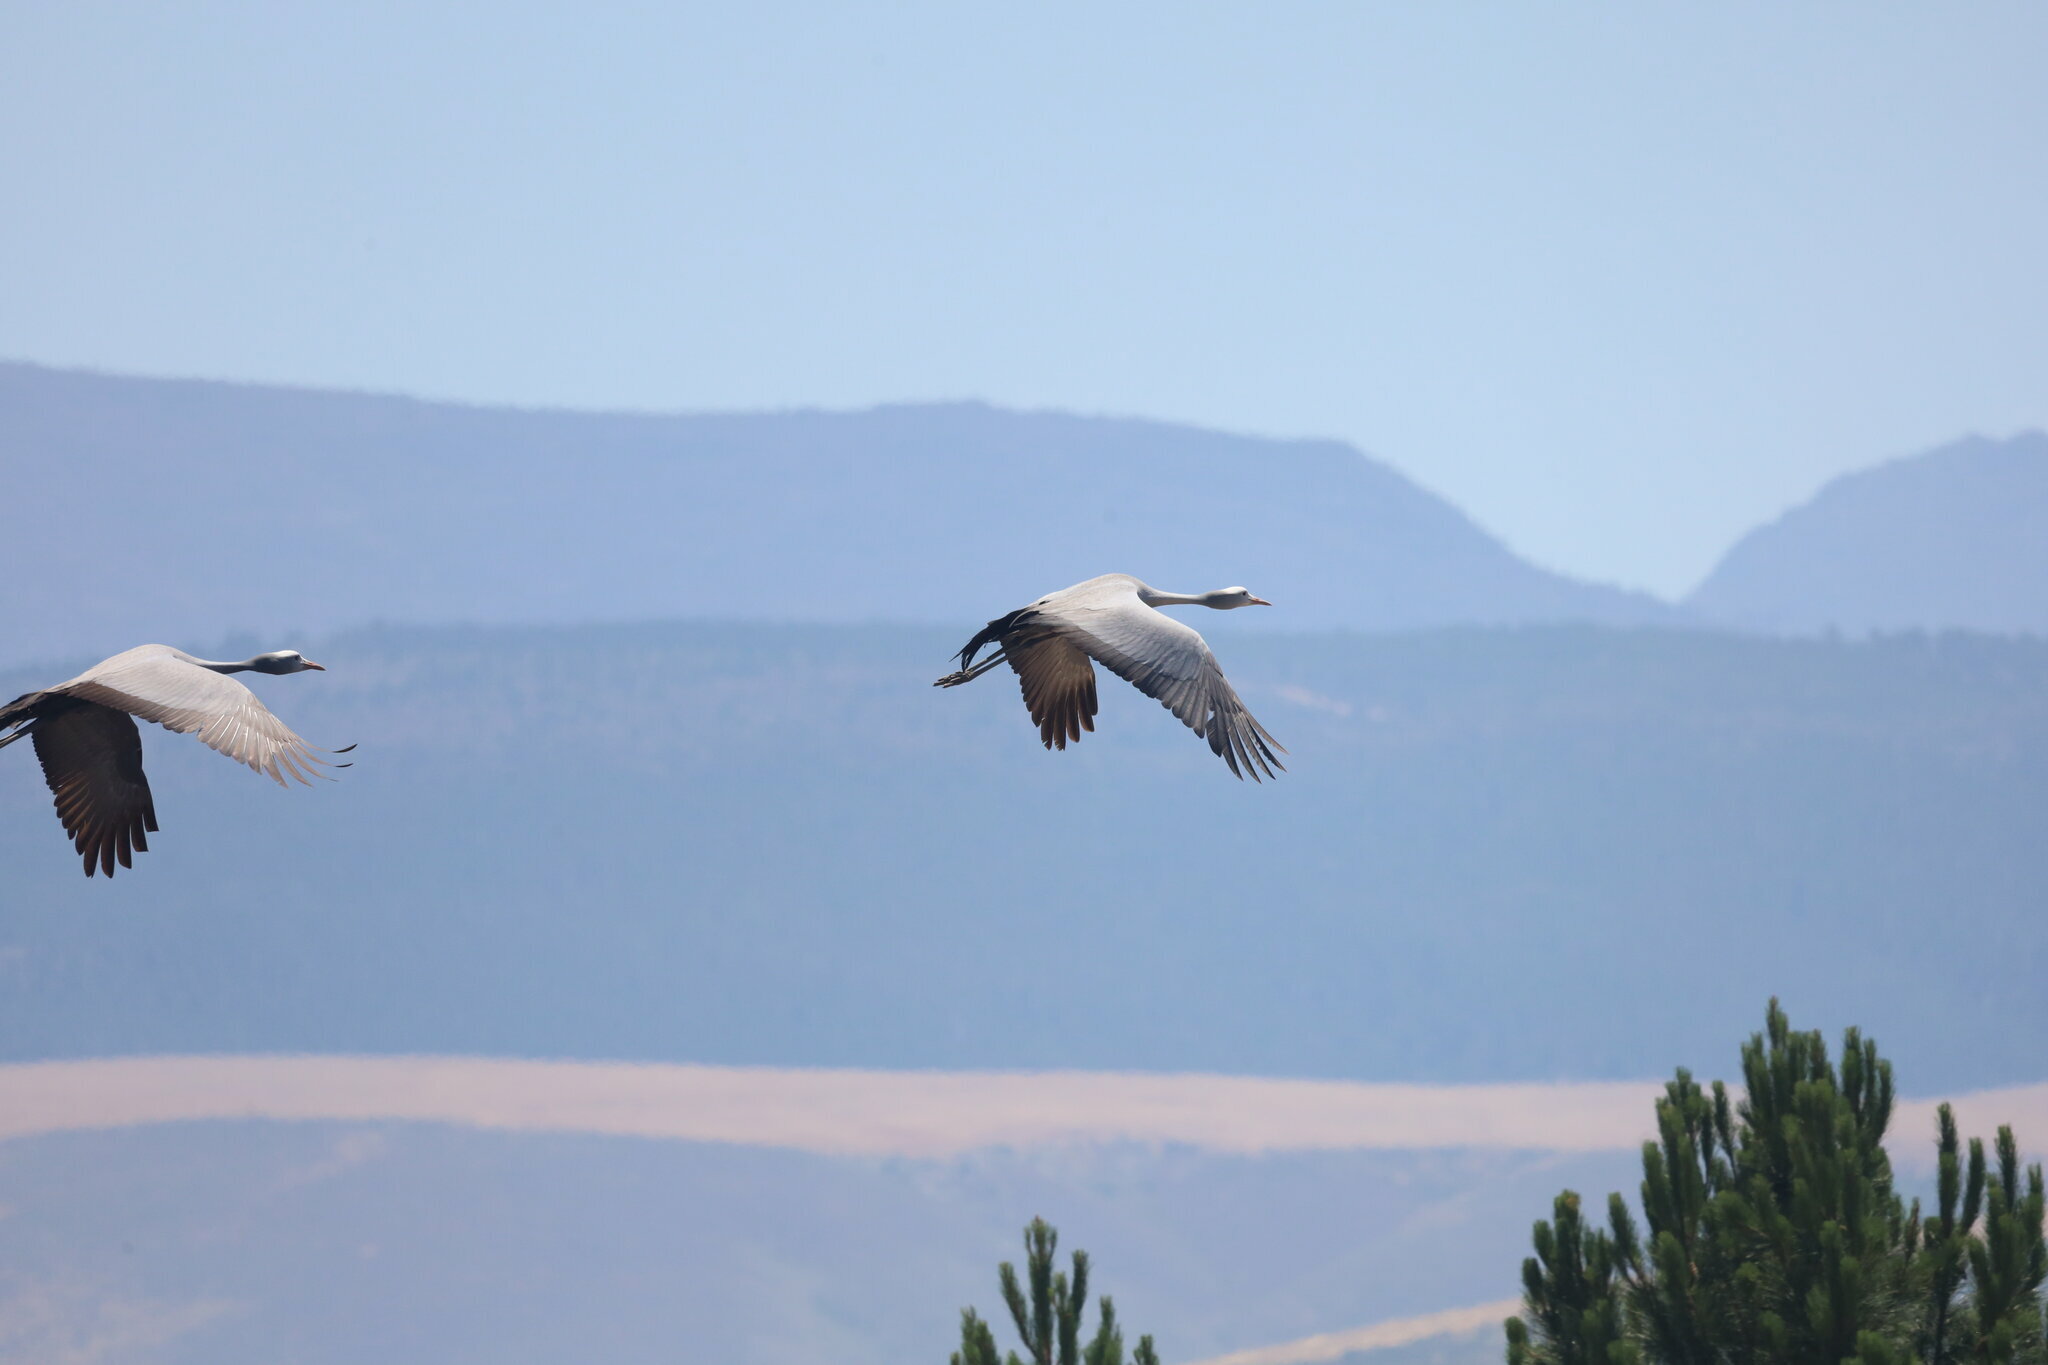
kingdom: Animalia
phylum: Chordata
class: Aves
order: Gruiformes
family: Gruidae
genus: Anthropoides
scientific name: Anthropoides paradiseus
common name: Blue crane
